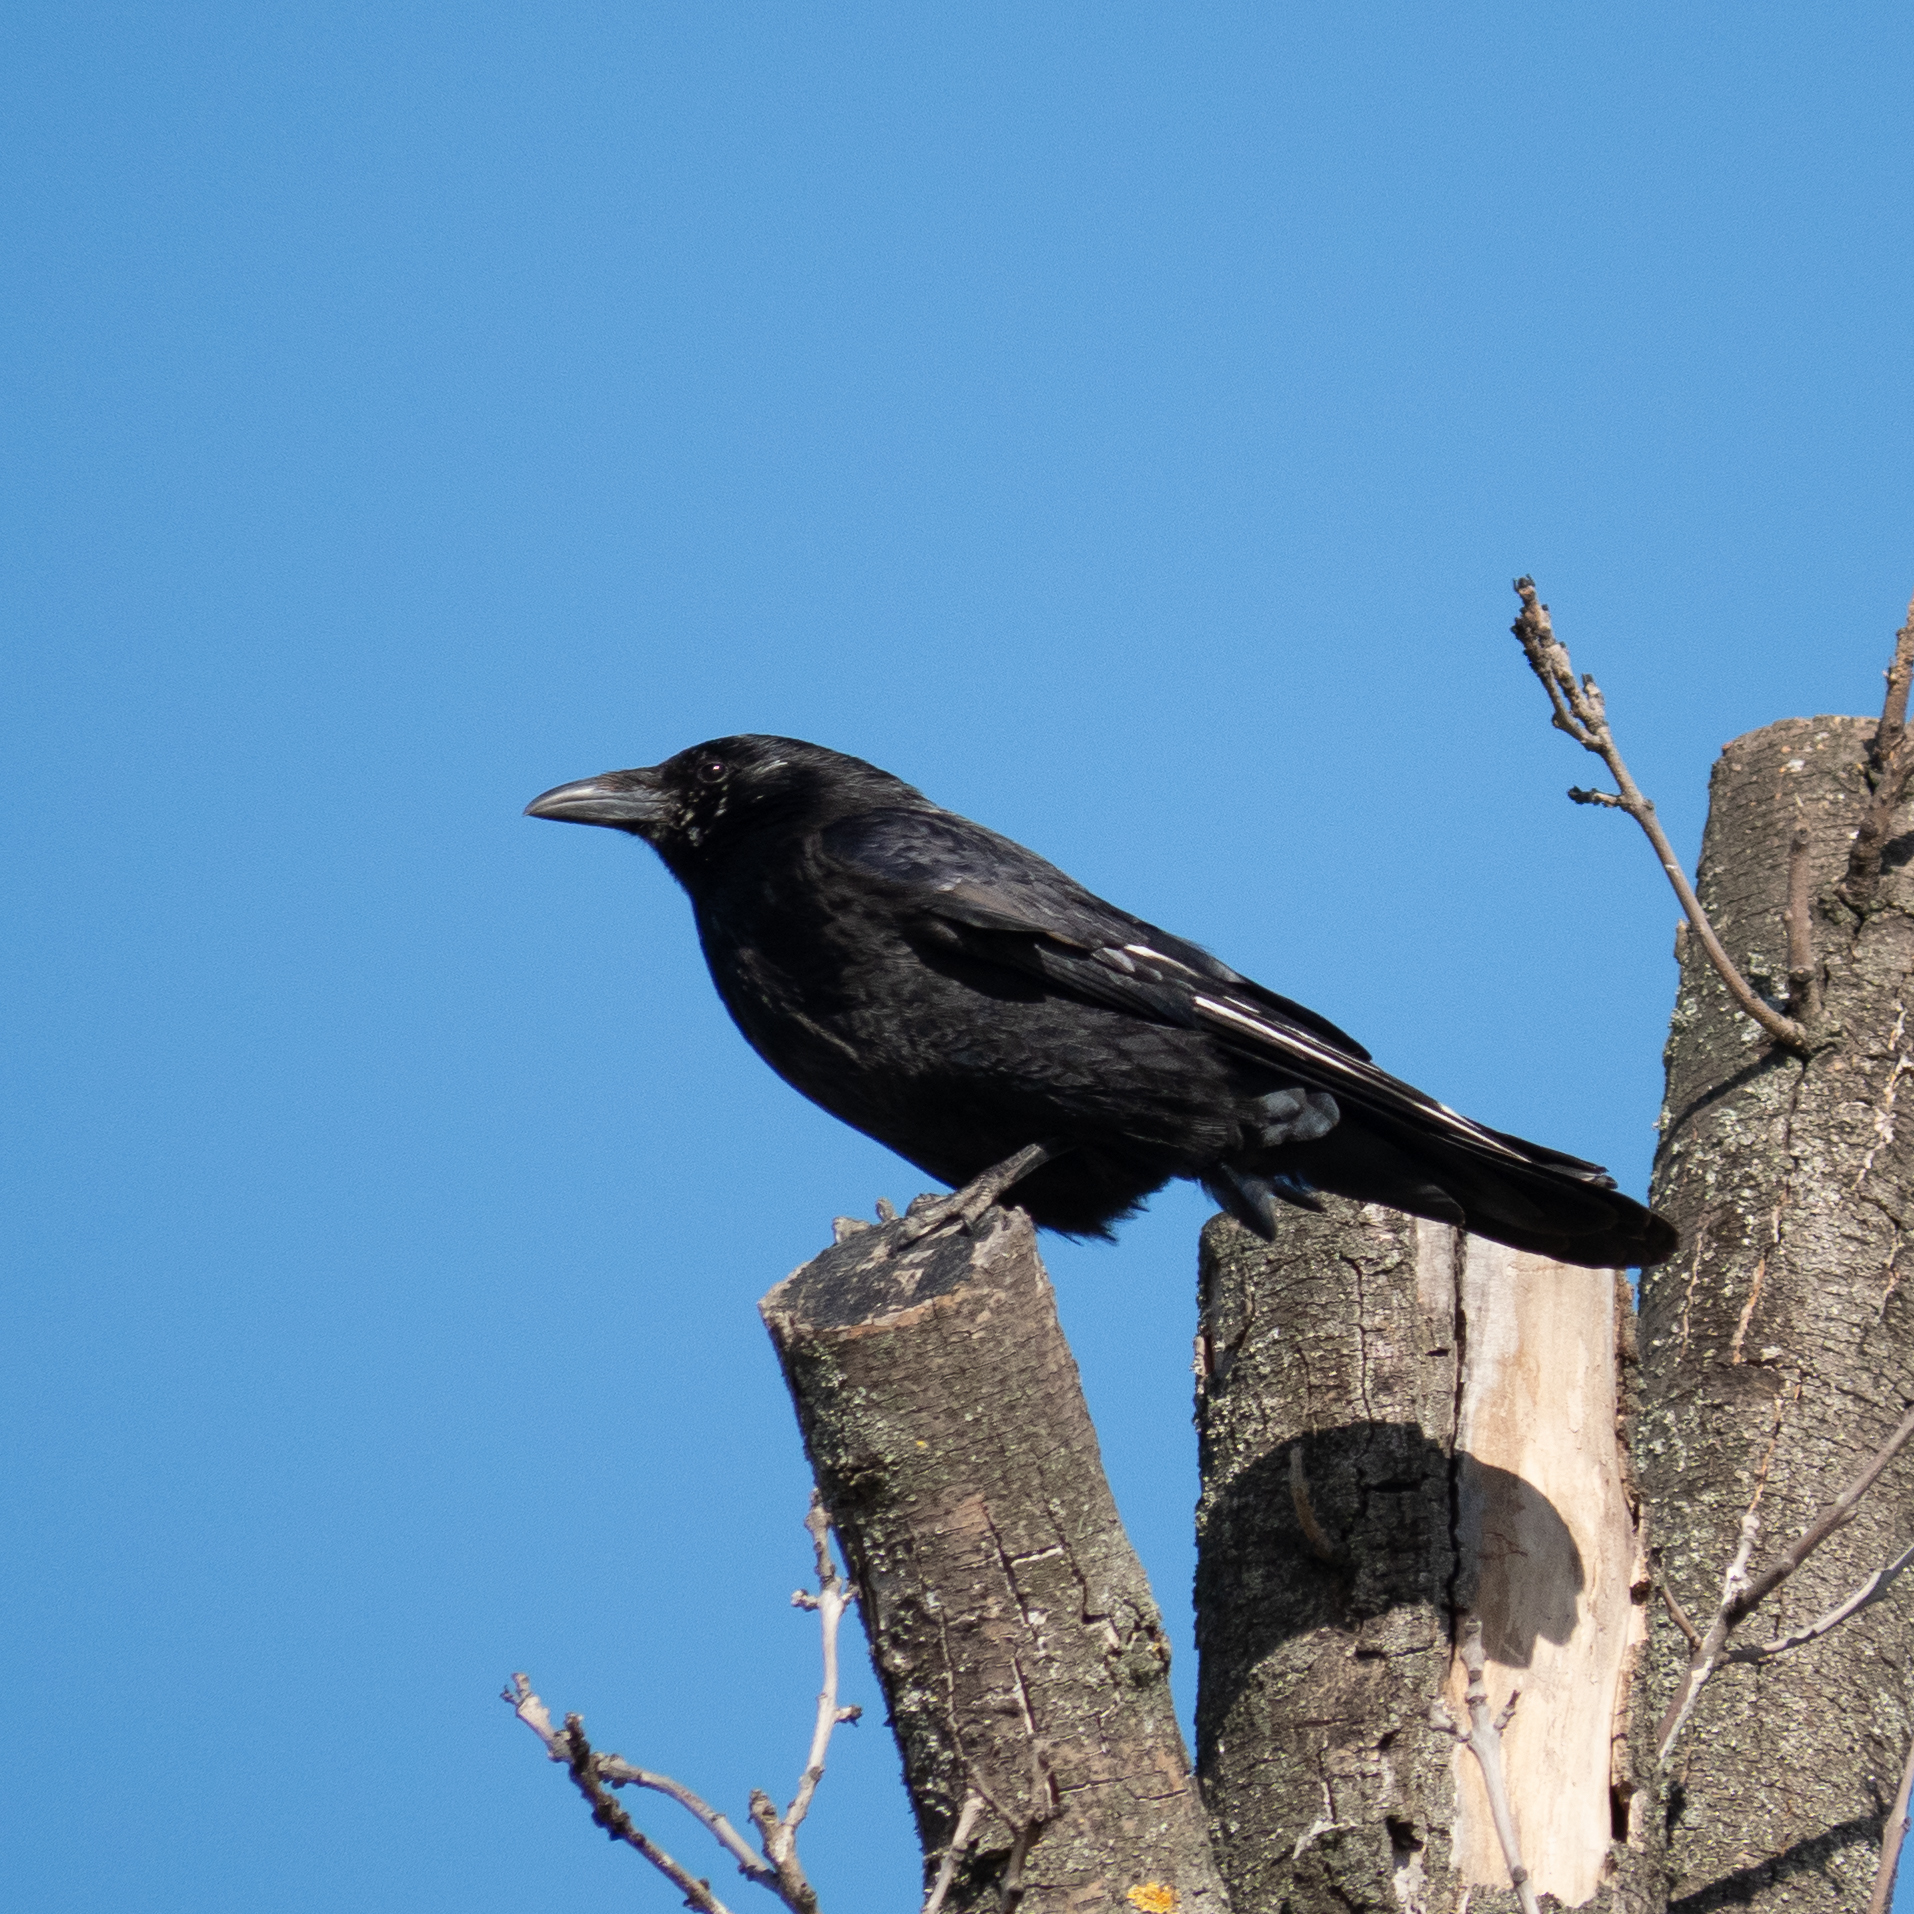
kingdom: Animalia
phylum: Chordata
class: Aves
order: Passeriformes
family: Corvidae
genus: Corvus
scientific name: Corvus corax
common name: Common raven
